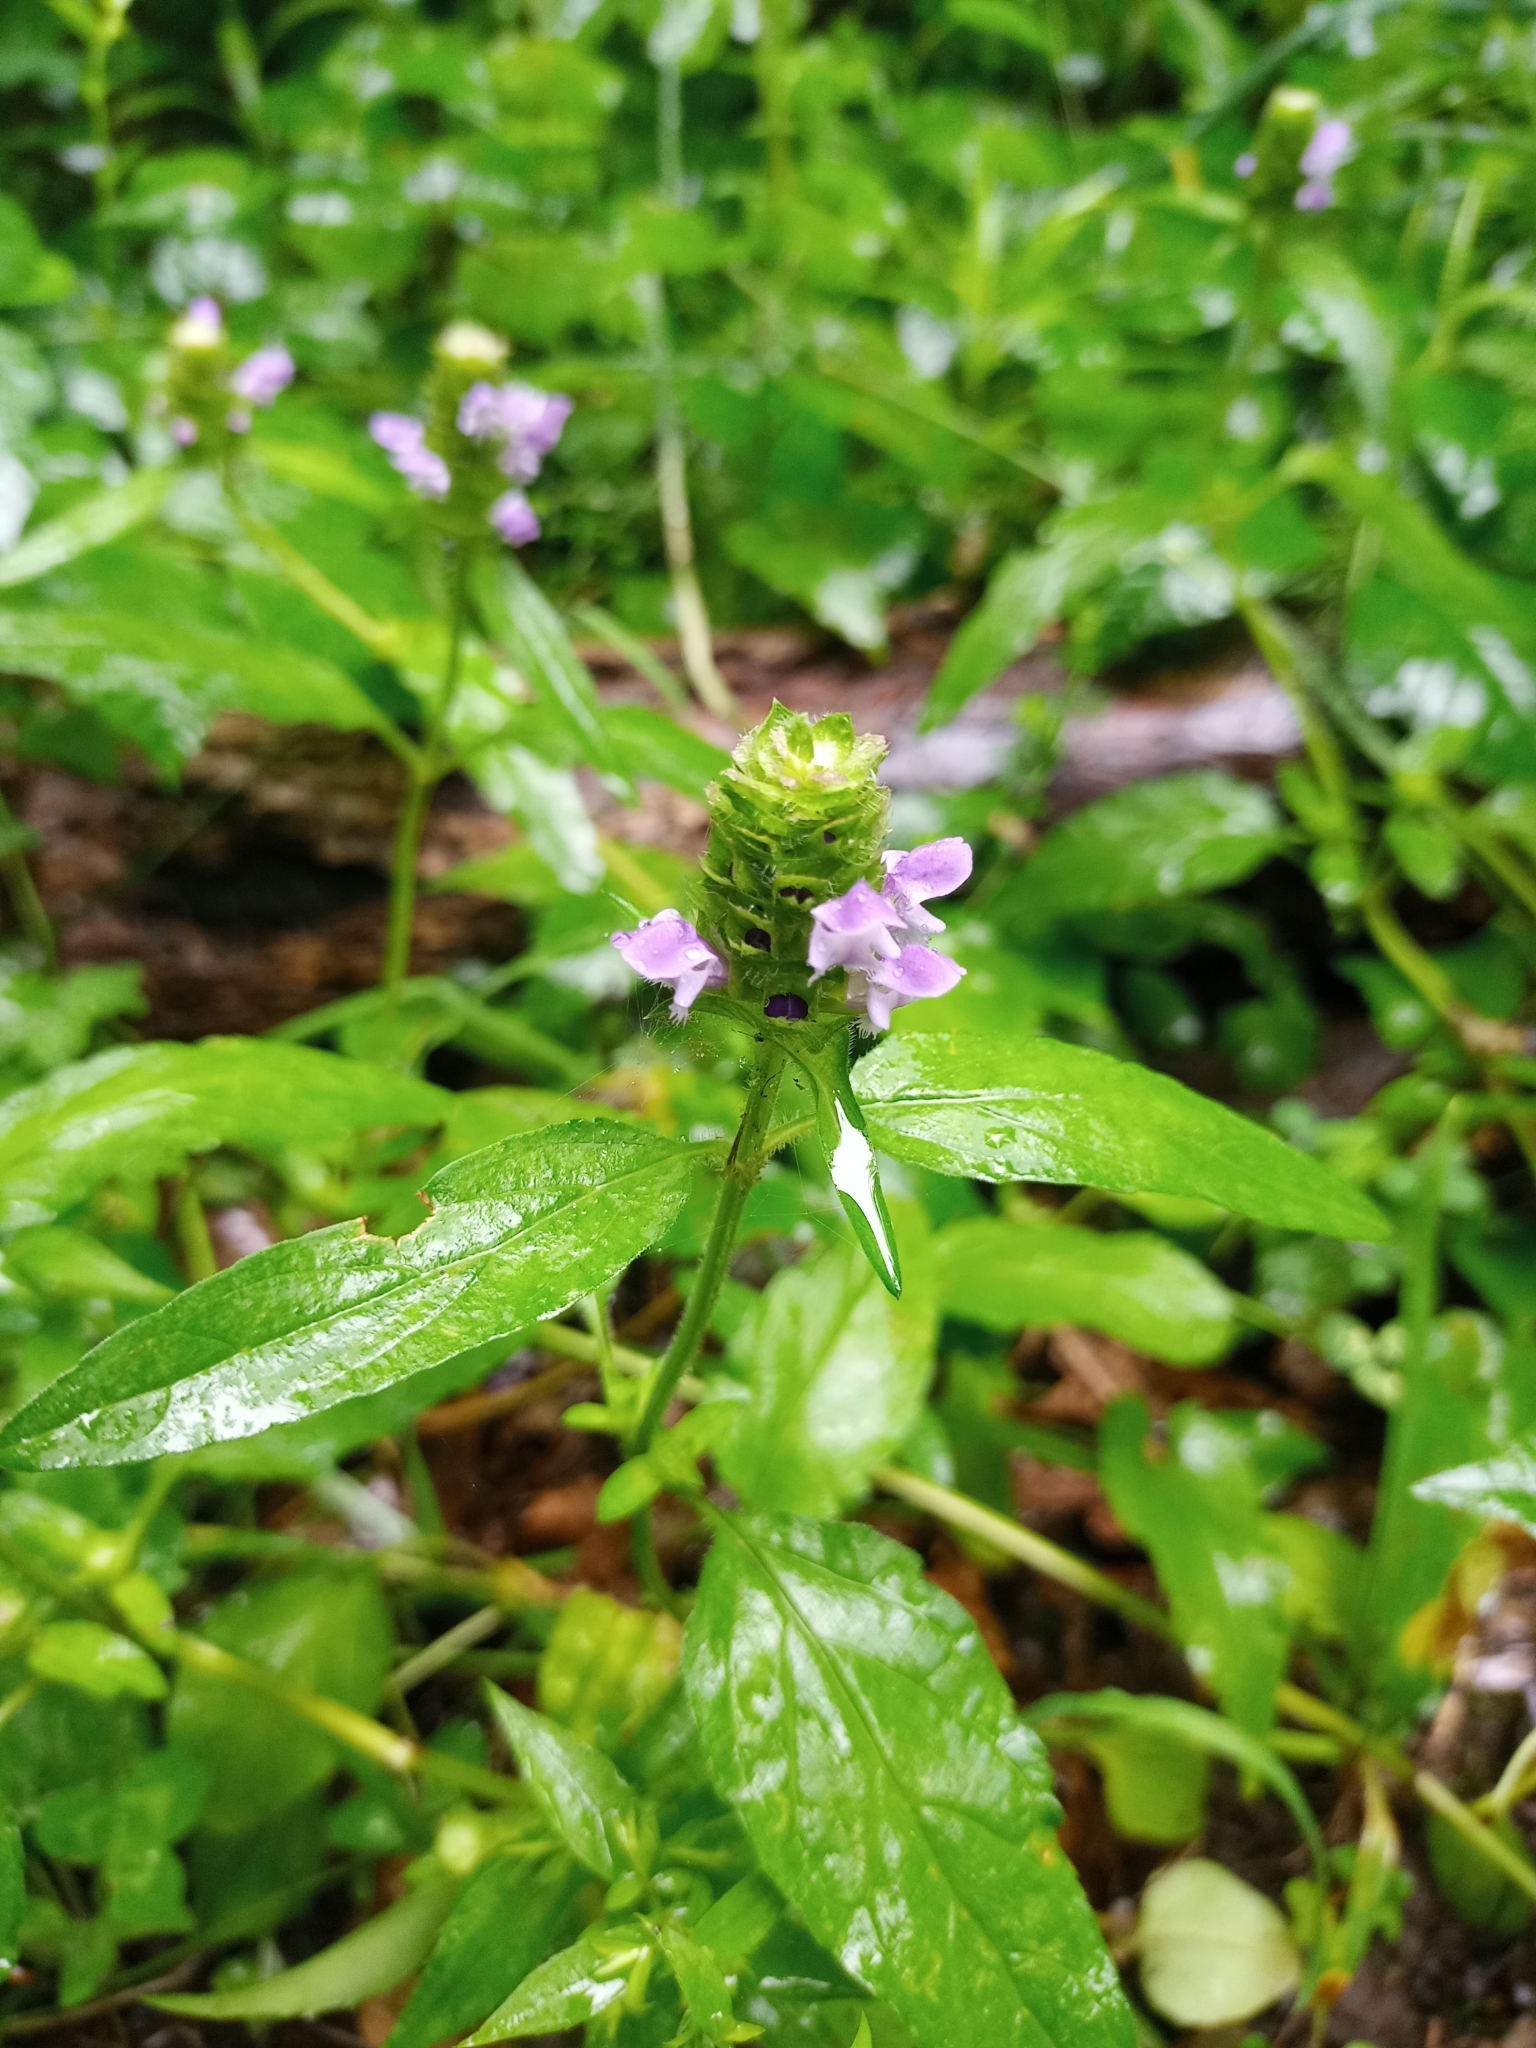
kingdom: Plantae
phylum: Tracheophyta
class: Magnoliopsida
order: Lamiales
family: Lamiaceae
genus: Prunella
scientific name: Prunella vulgaris
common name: Heal-all
